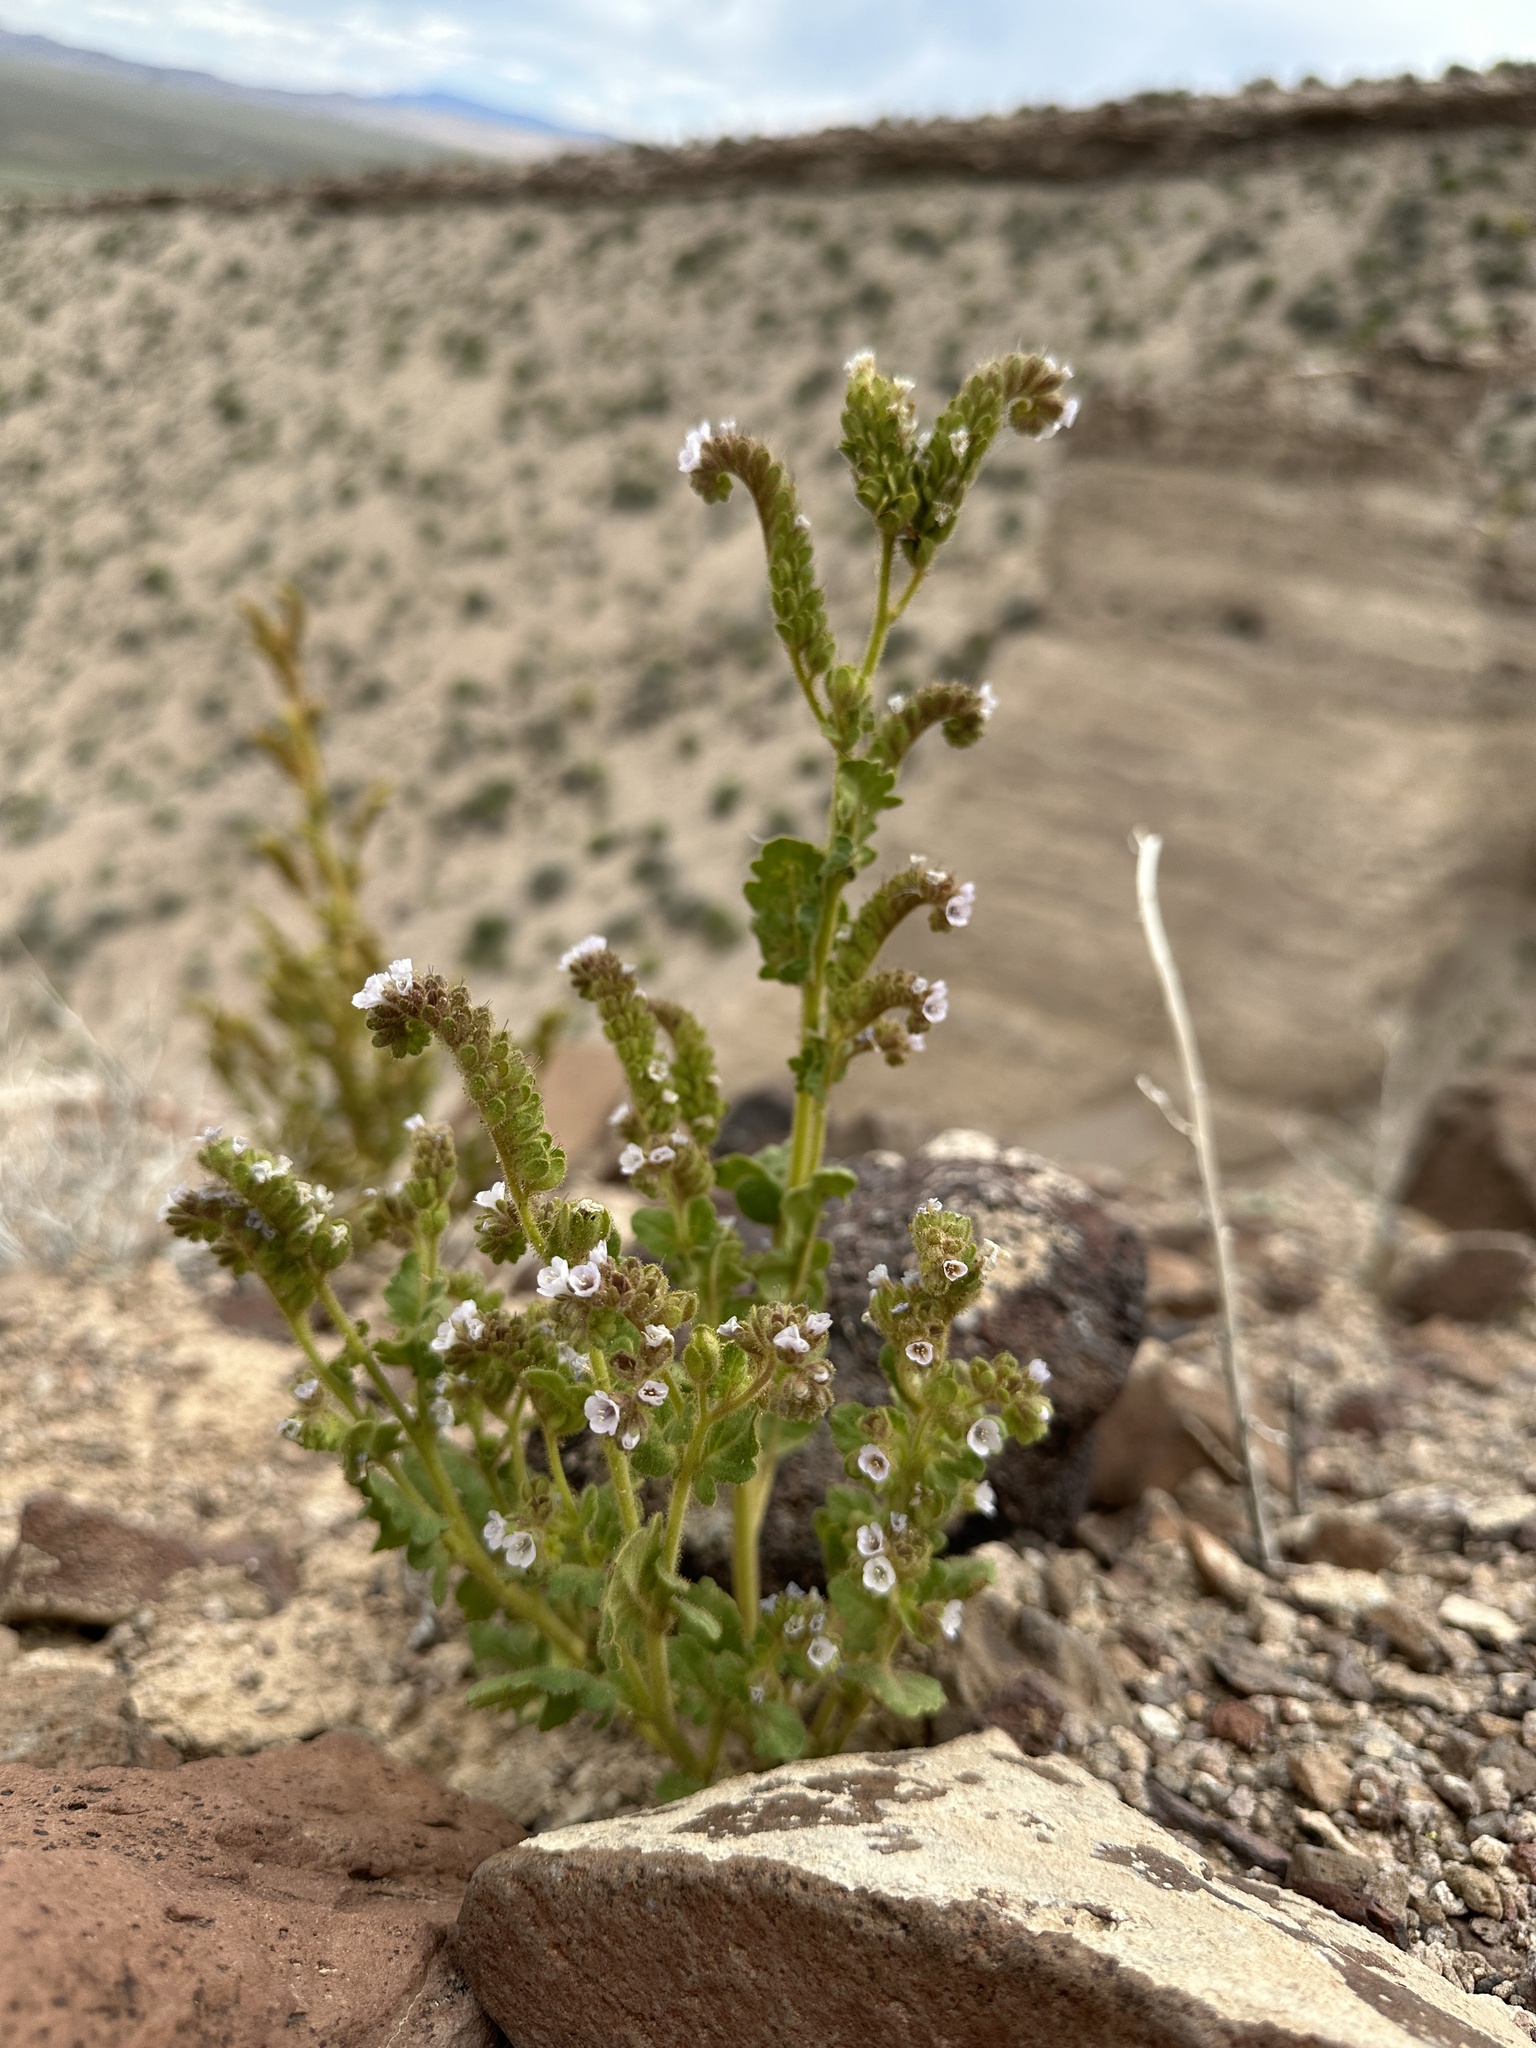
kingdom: Plantae
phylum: Tracheophyta
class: Magnoliopsida
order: Boraginales
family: Hydrophyllaceae
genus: Phacelia
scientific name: Phacelia anelsonii
